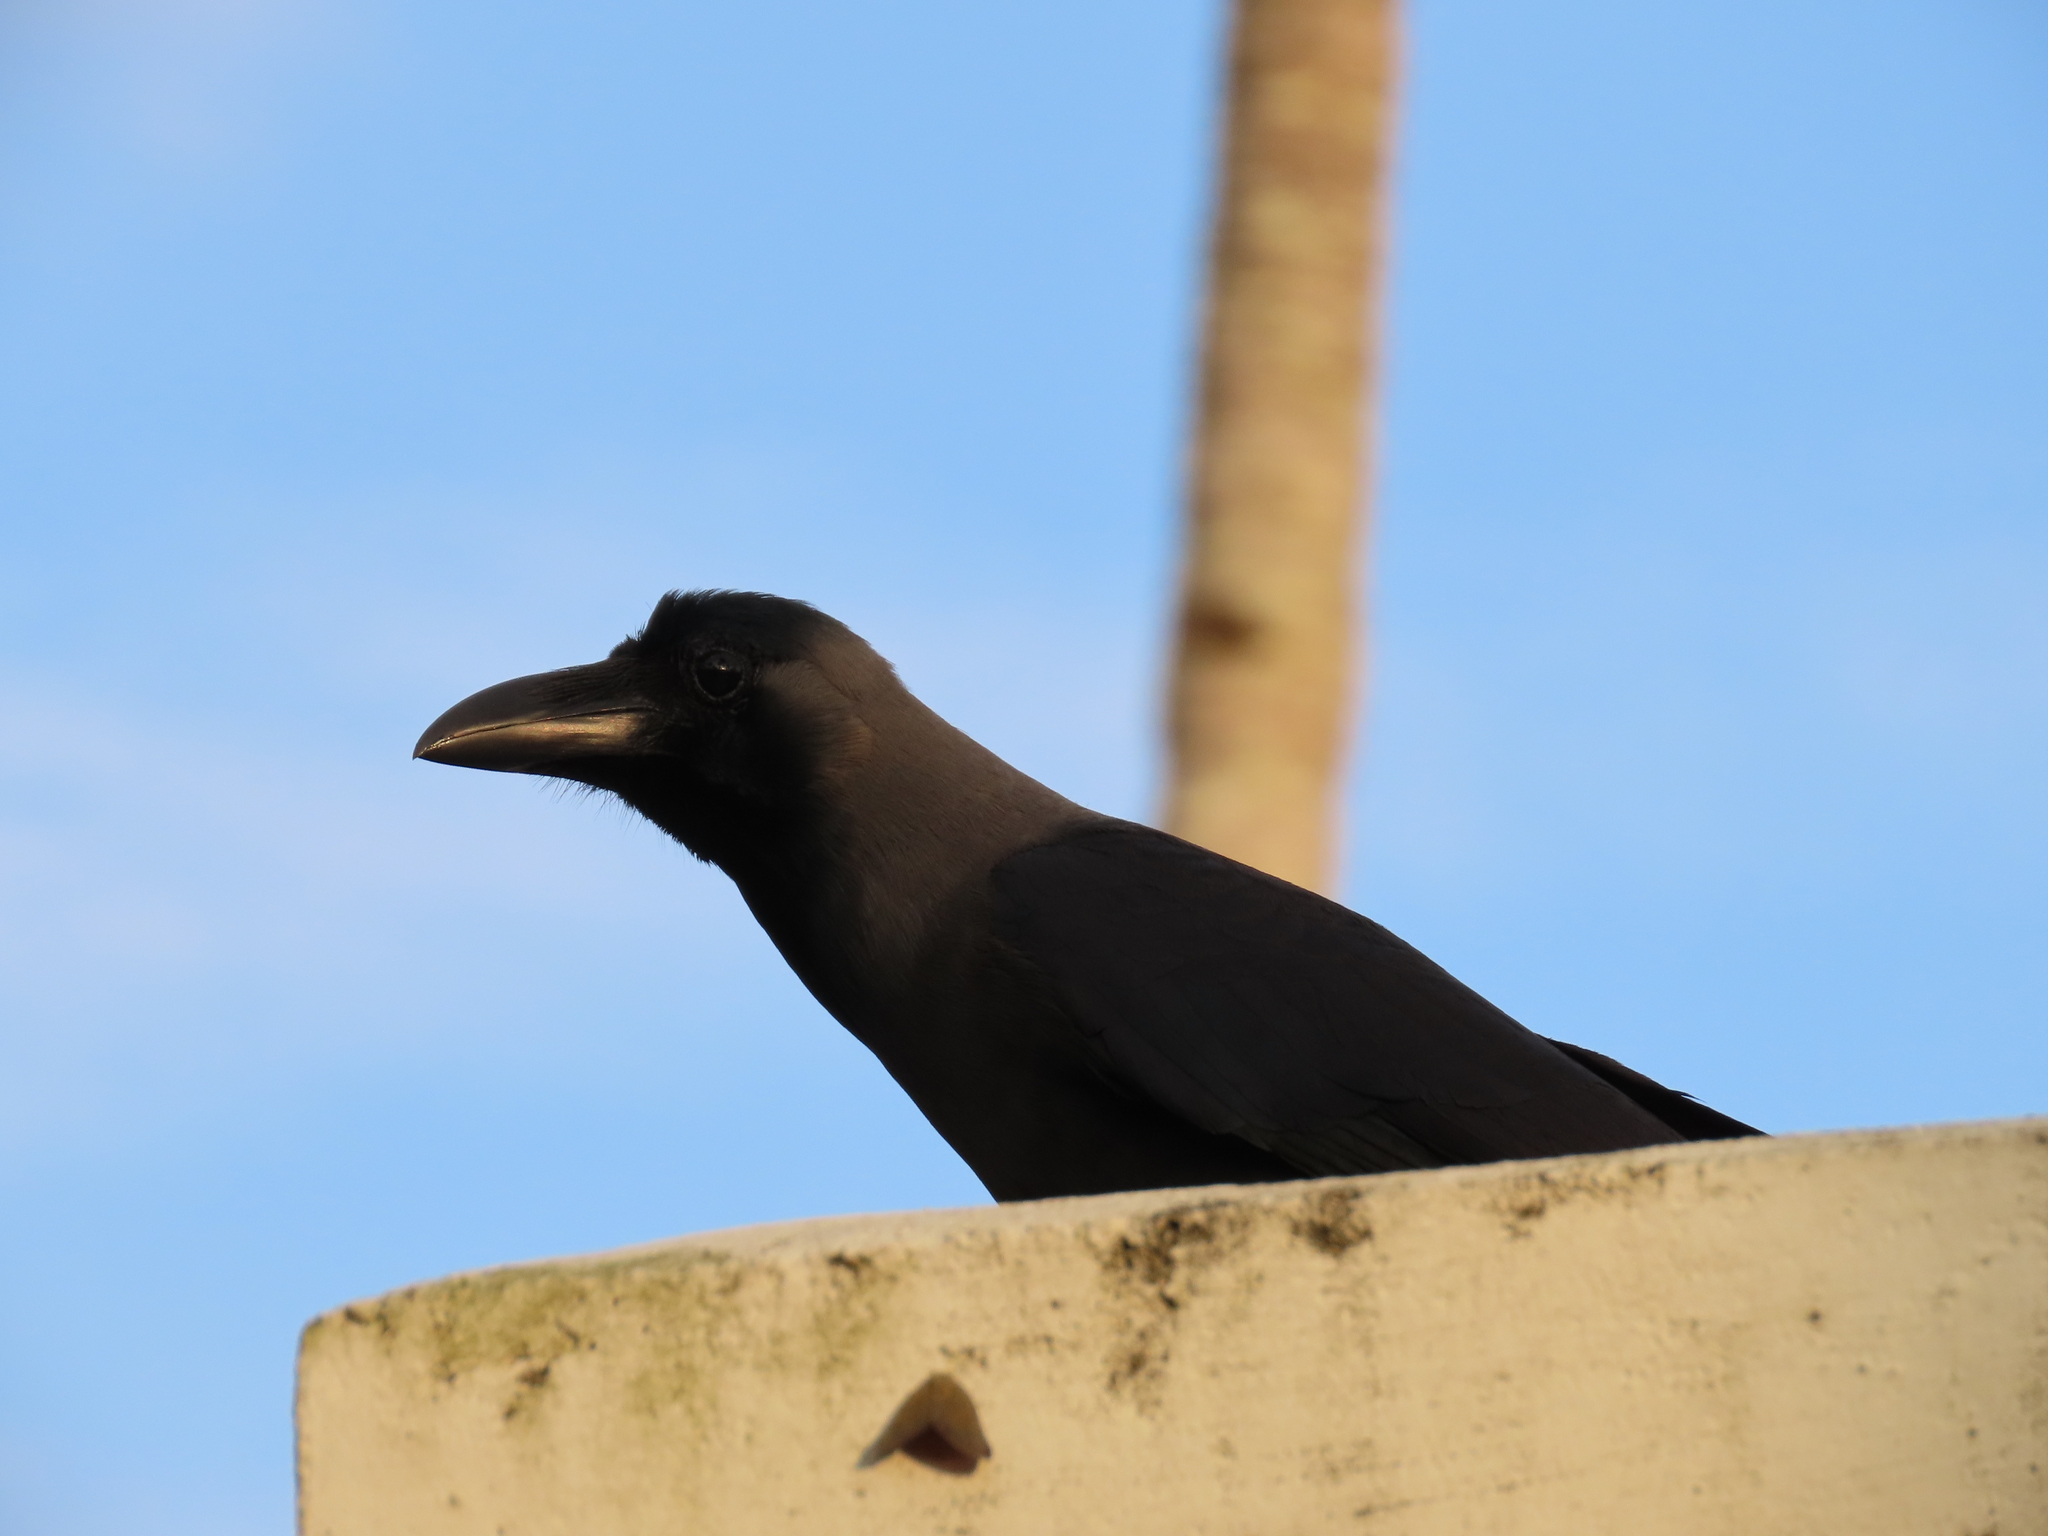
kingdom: Animalia
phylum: Chordata
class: Aves
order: Passeriformes
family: Corvidae
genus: Corvus
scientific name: Corvus splendens
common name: House crow
